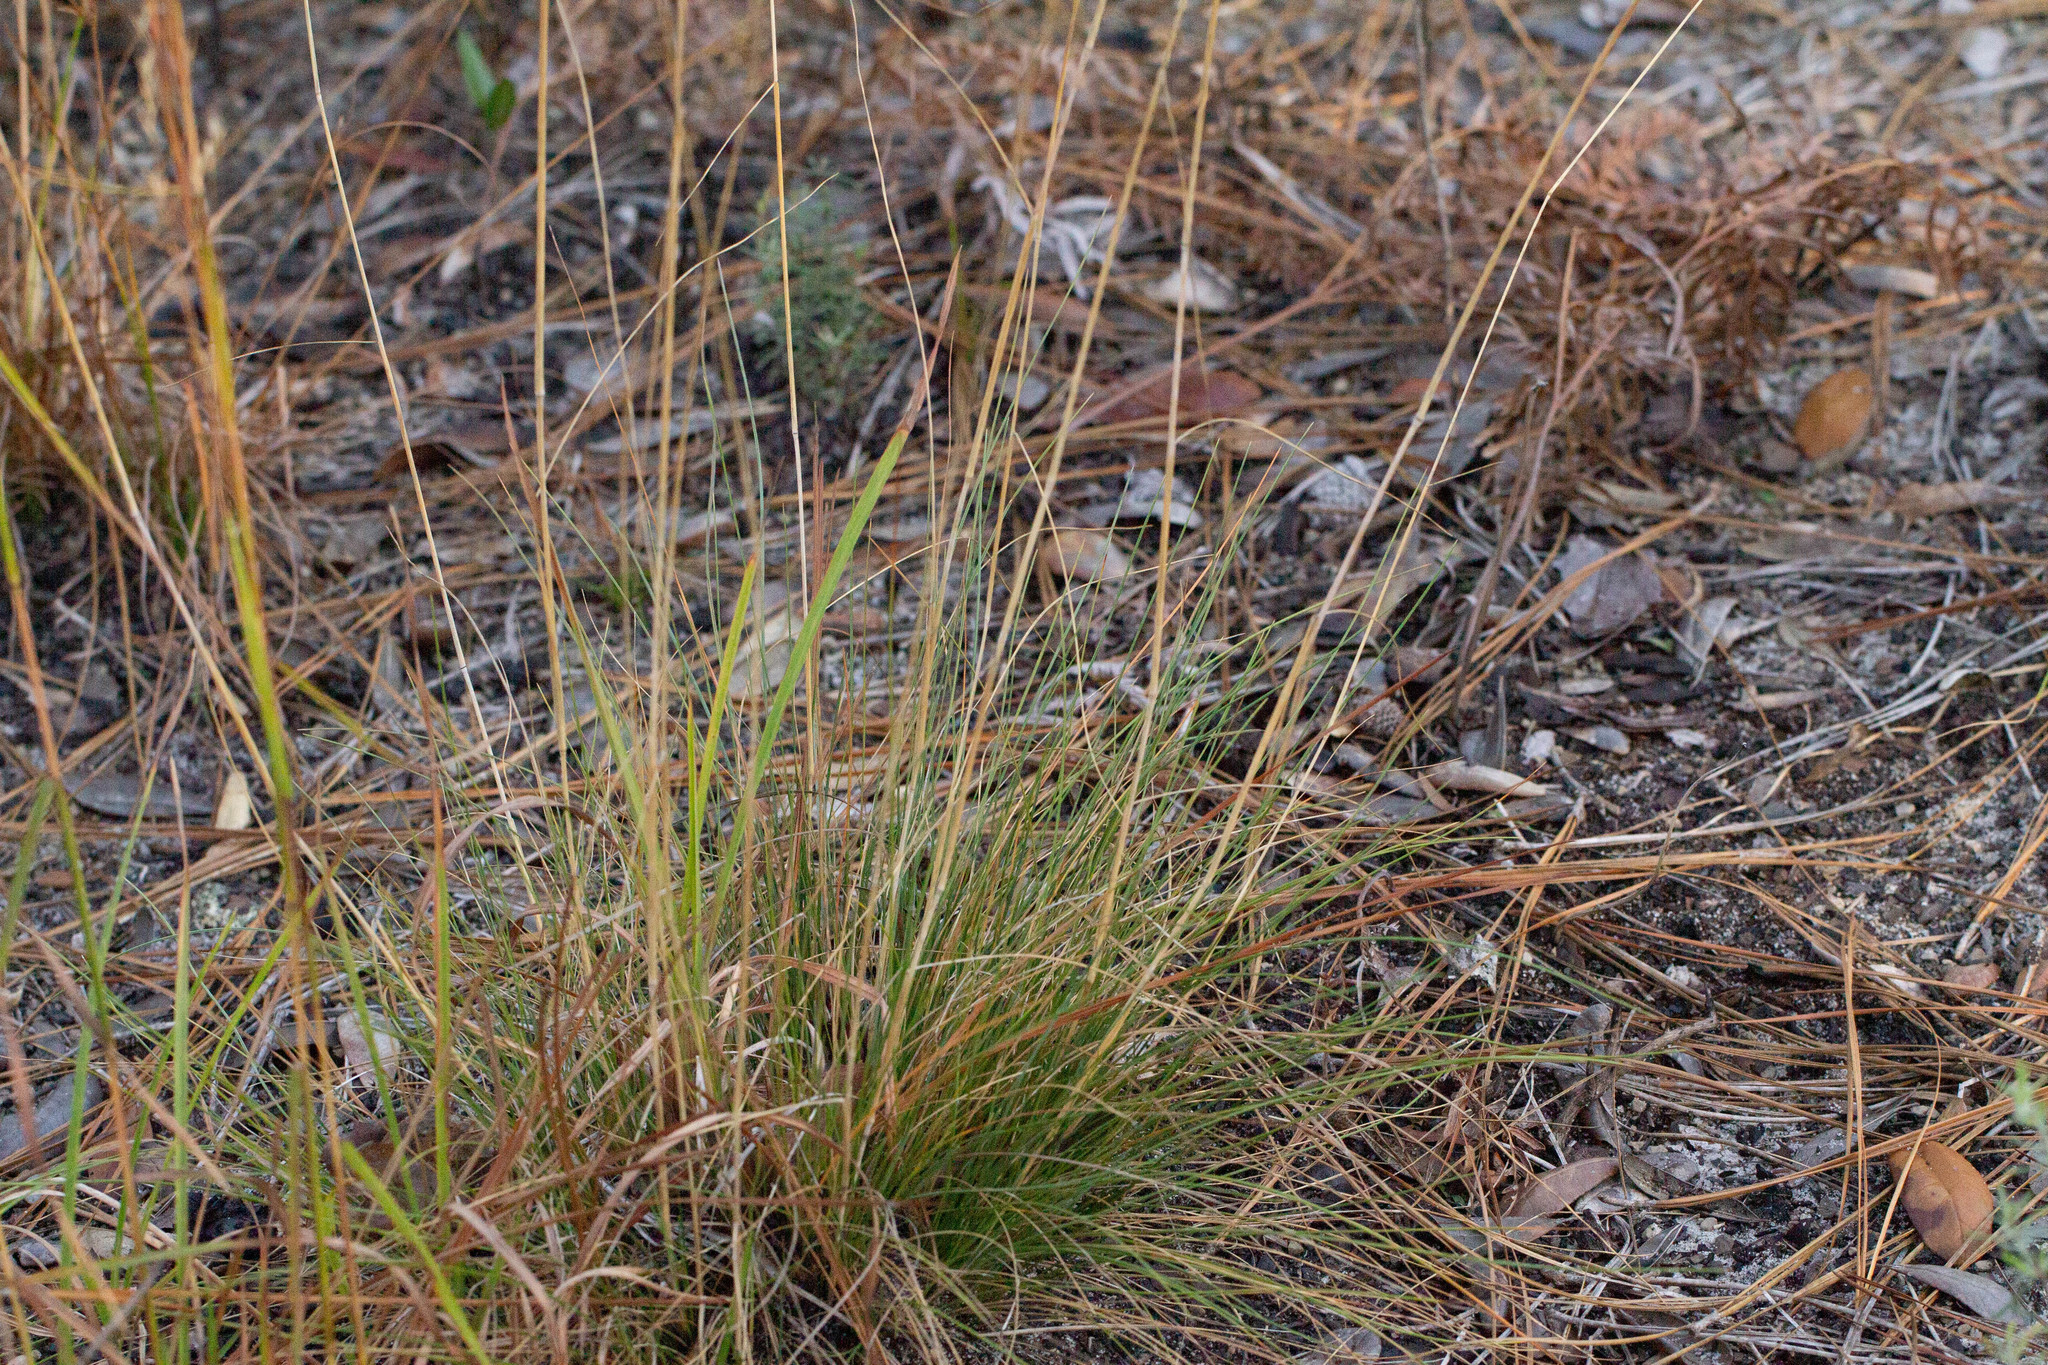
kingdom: Plantae
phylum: Tracheophyta
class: Liliopsida
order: Poales
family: Poaceae
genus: Sporobolus
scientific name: Sporobolus junceus
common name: Lizard grass
